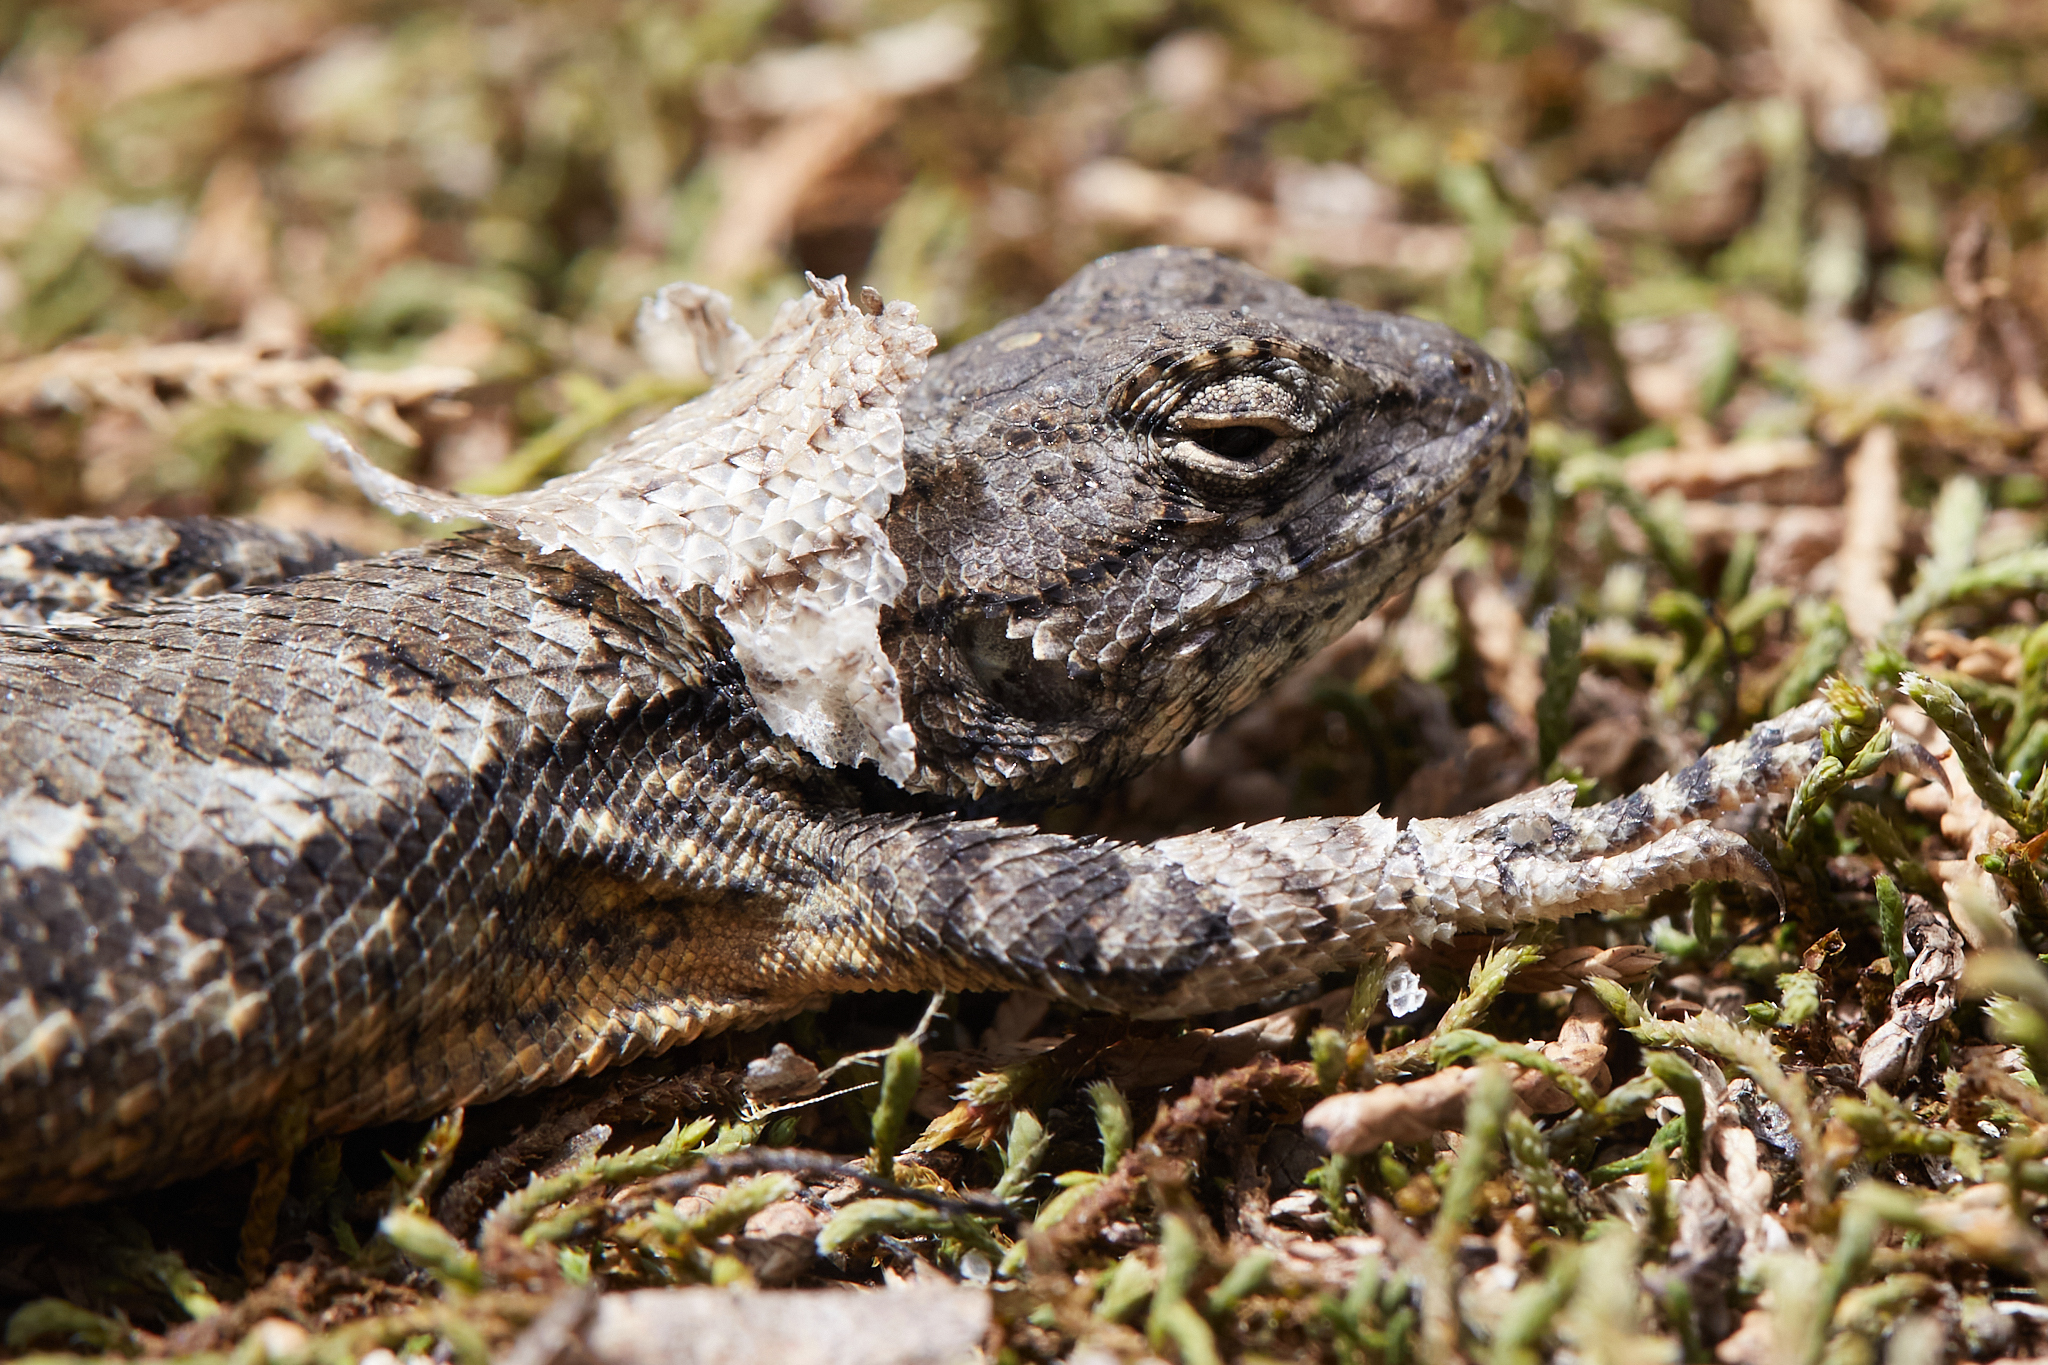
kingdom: Animalia
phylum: Chordata
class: Squamata
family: Phrynosomatidae
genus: Sceloporus
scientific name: Sceloporus undulatus
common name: Eastern fence lizard
